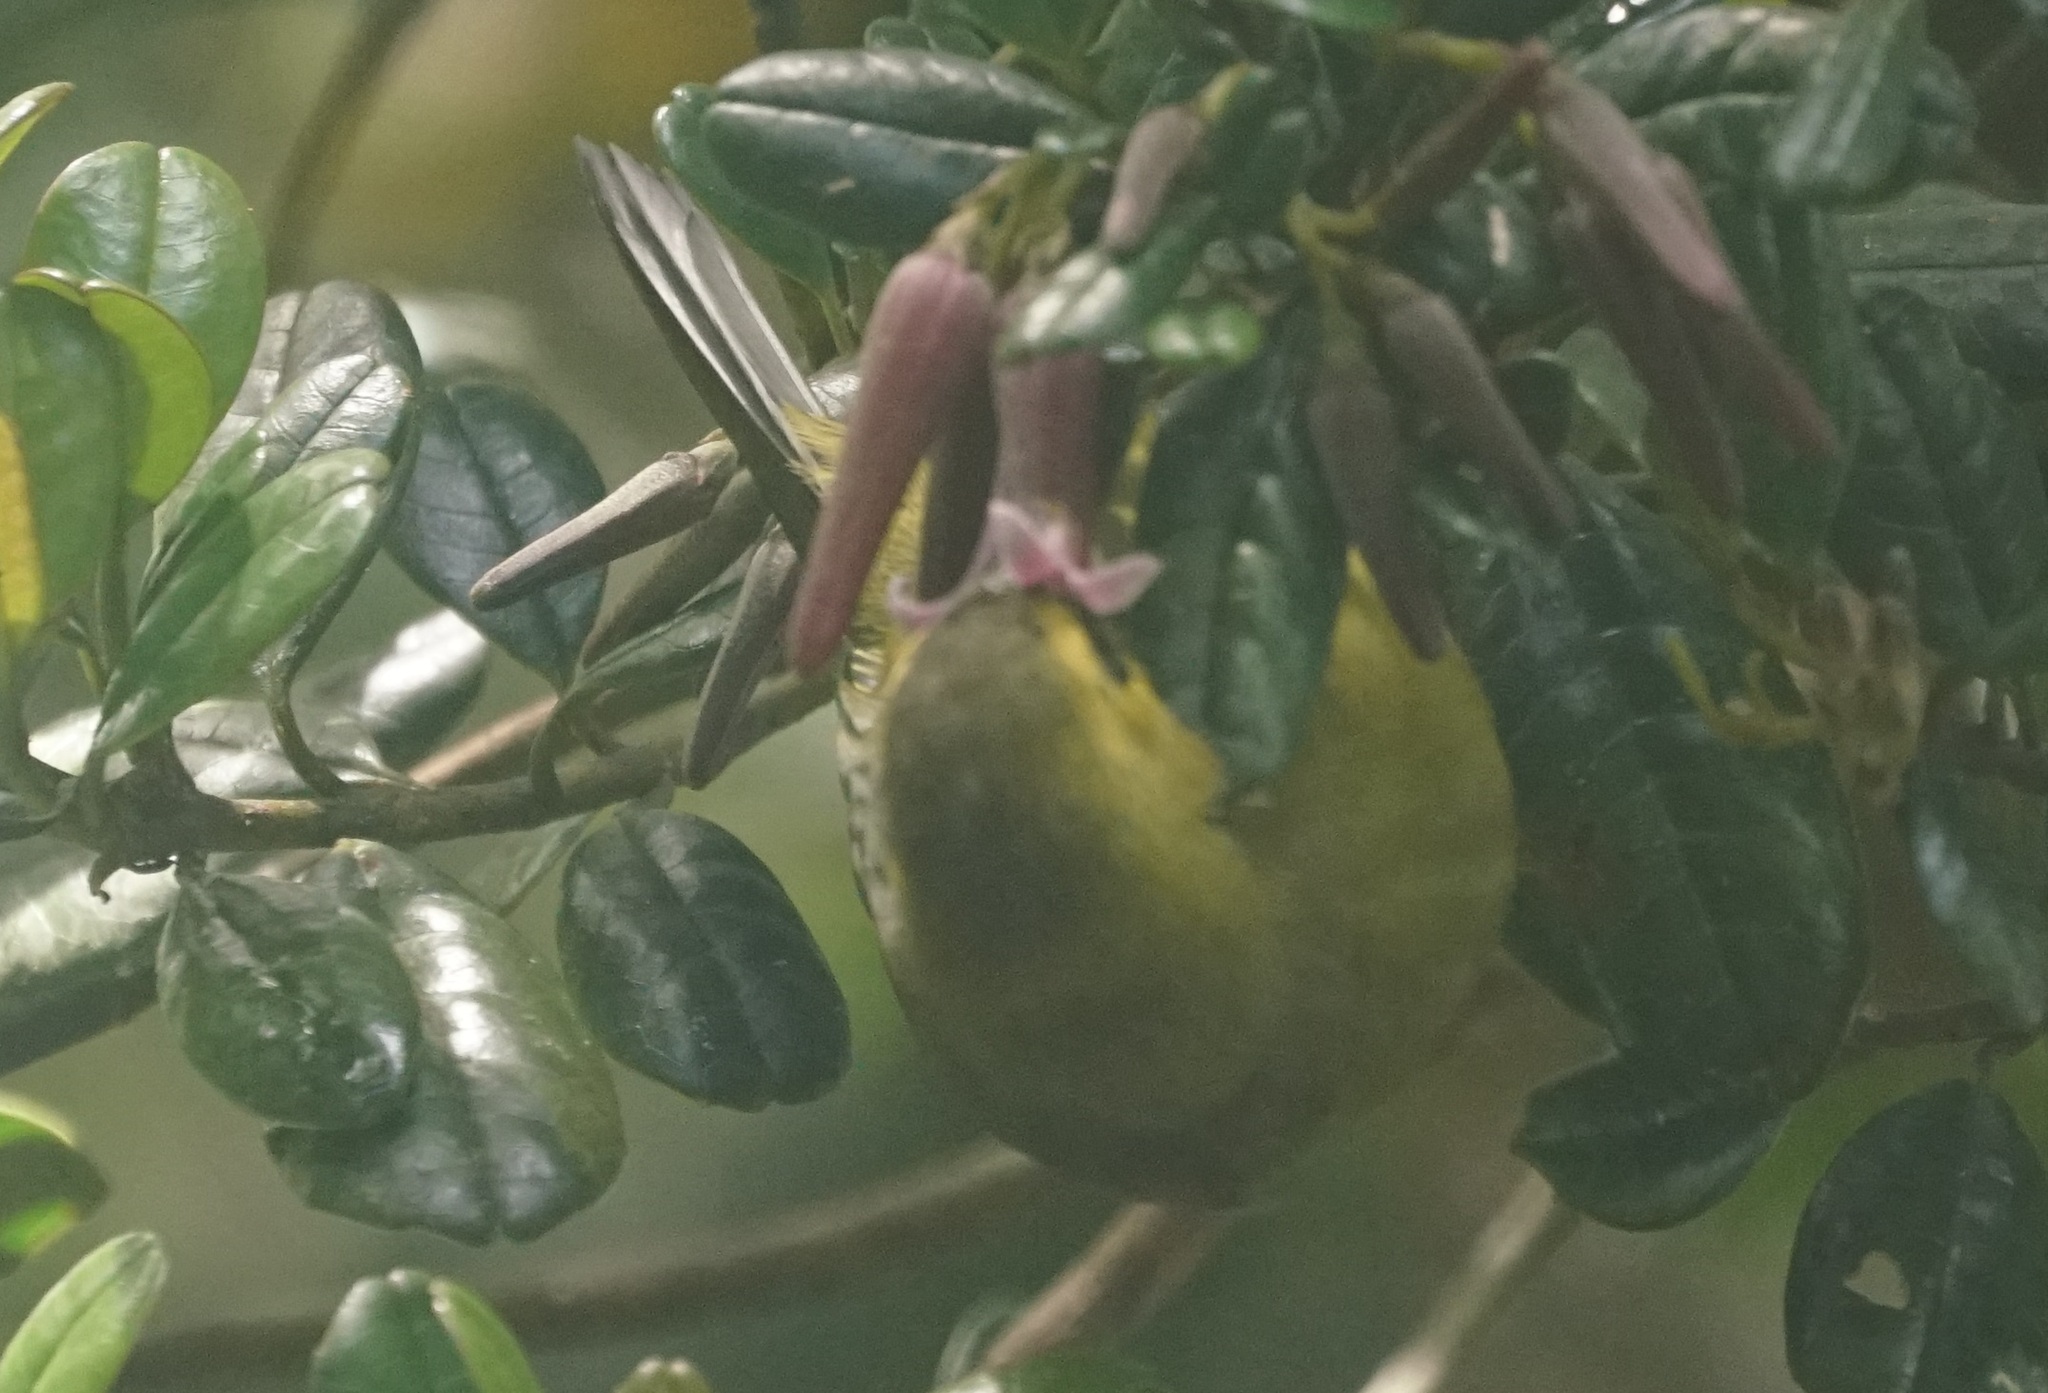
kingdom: Animalia
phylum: Chordata
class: Aves
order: Passeriformes
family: Zosteropidae
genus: Chlorocharis
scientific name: Chlorocharis emiliae
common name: Mountain blackeye
